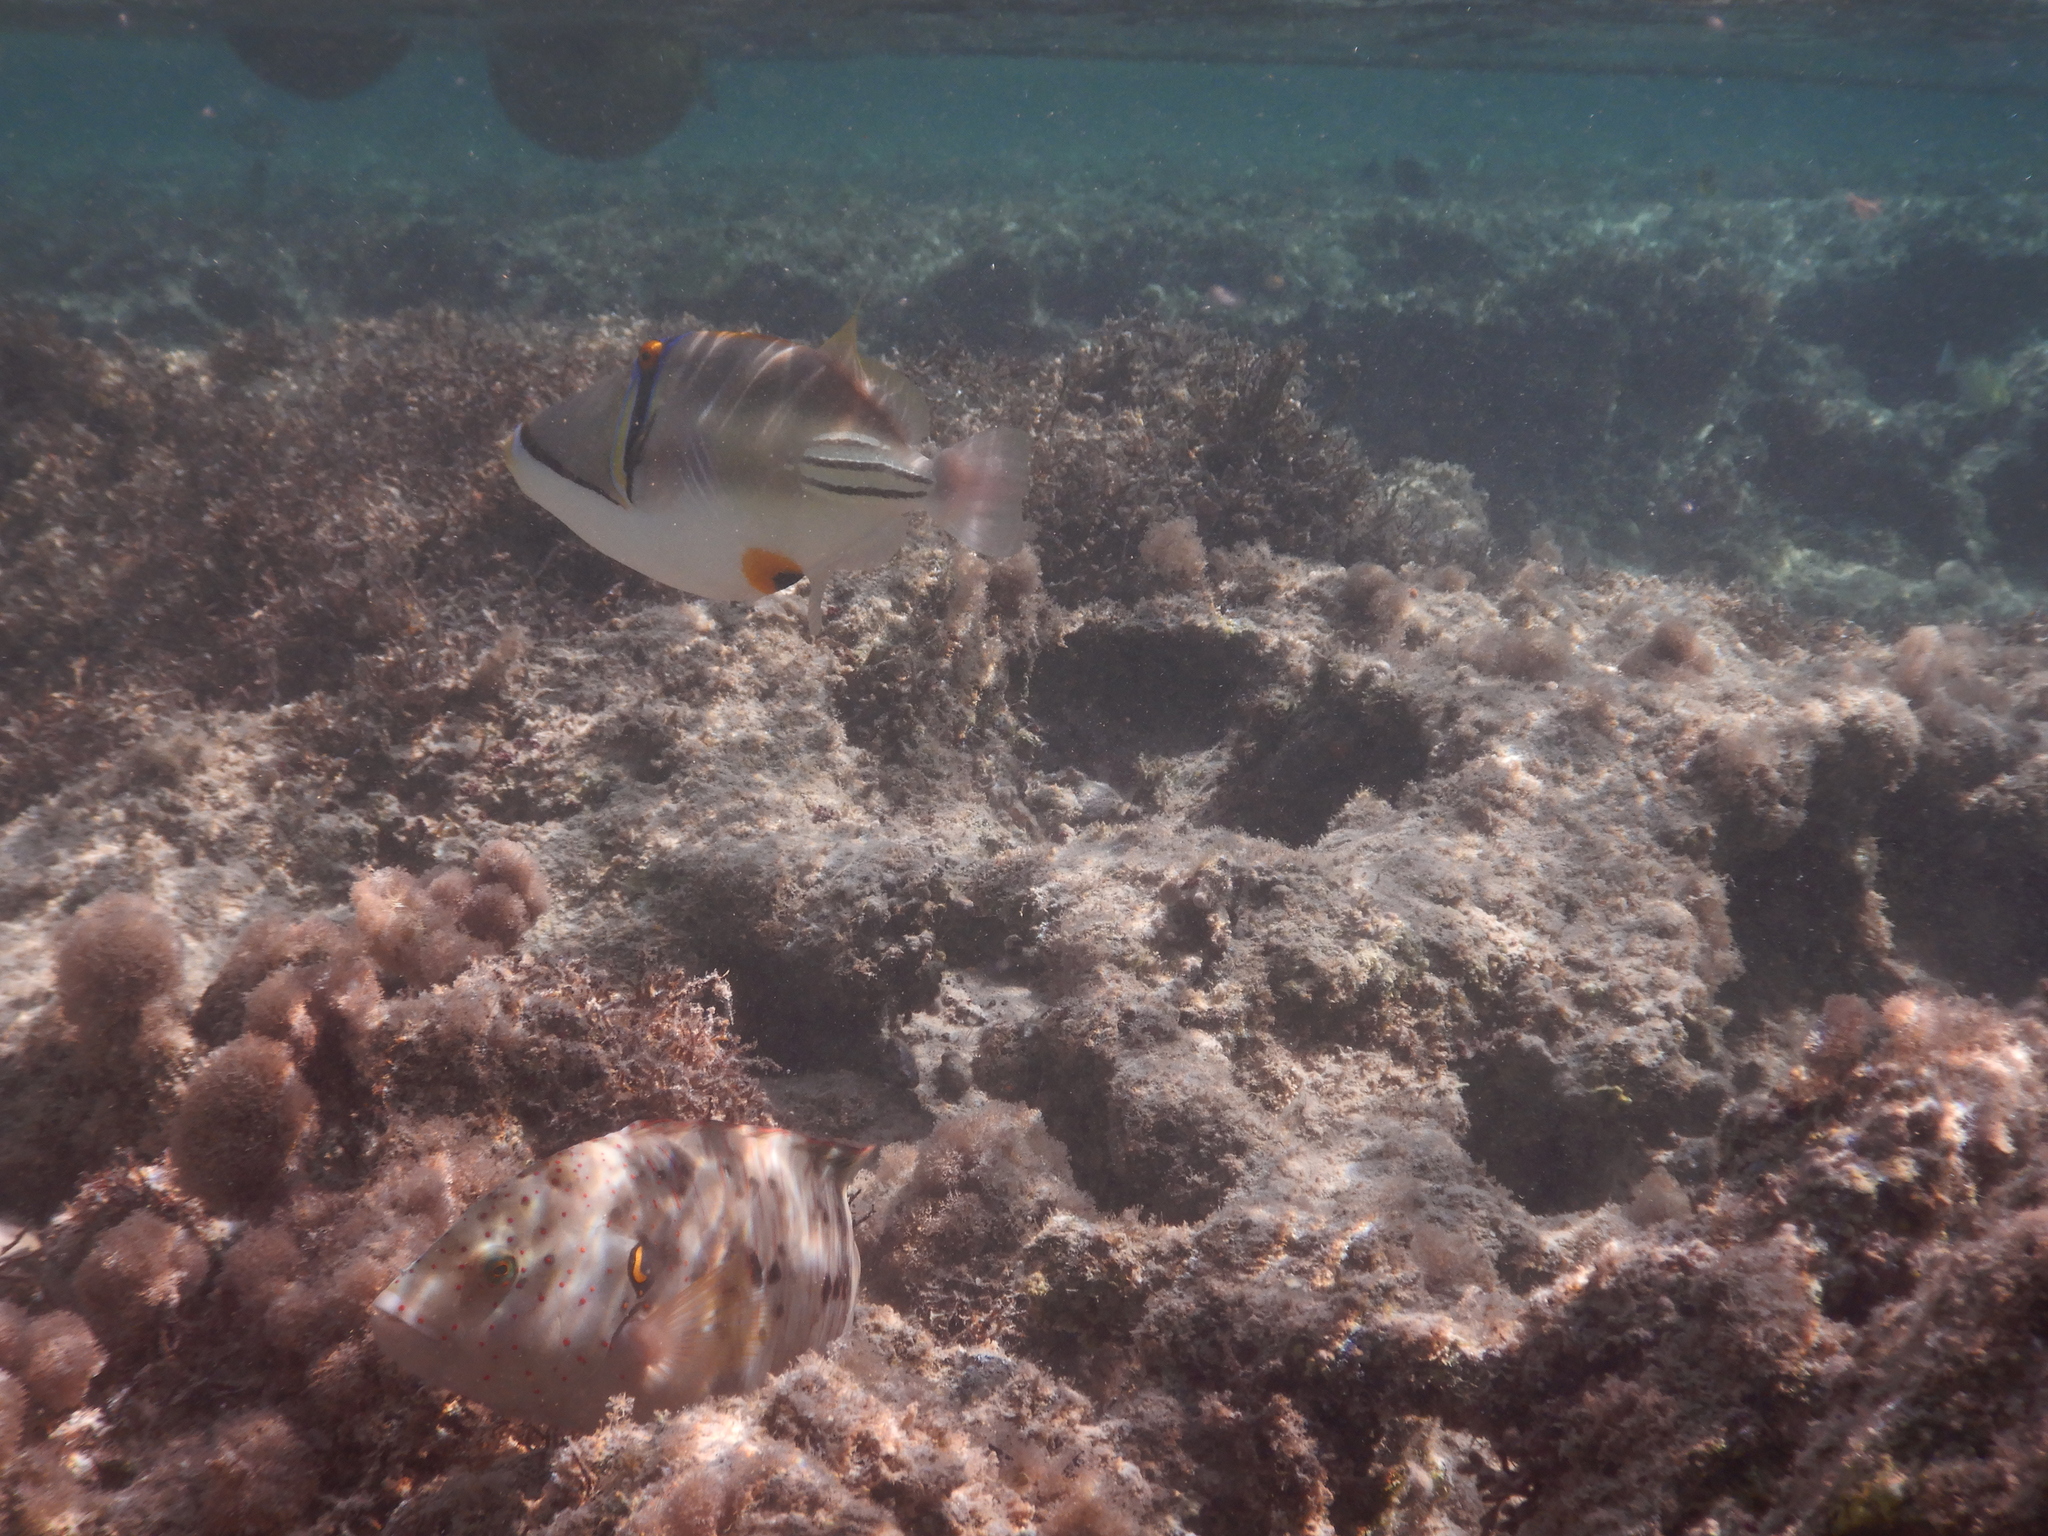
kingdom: Animalia
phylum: Chordata
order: Tetraodontiformes
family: Balistidae
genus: Rhinecanthus
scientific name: Rhinecanthus assasi
